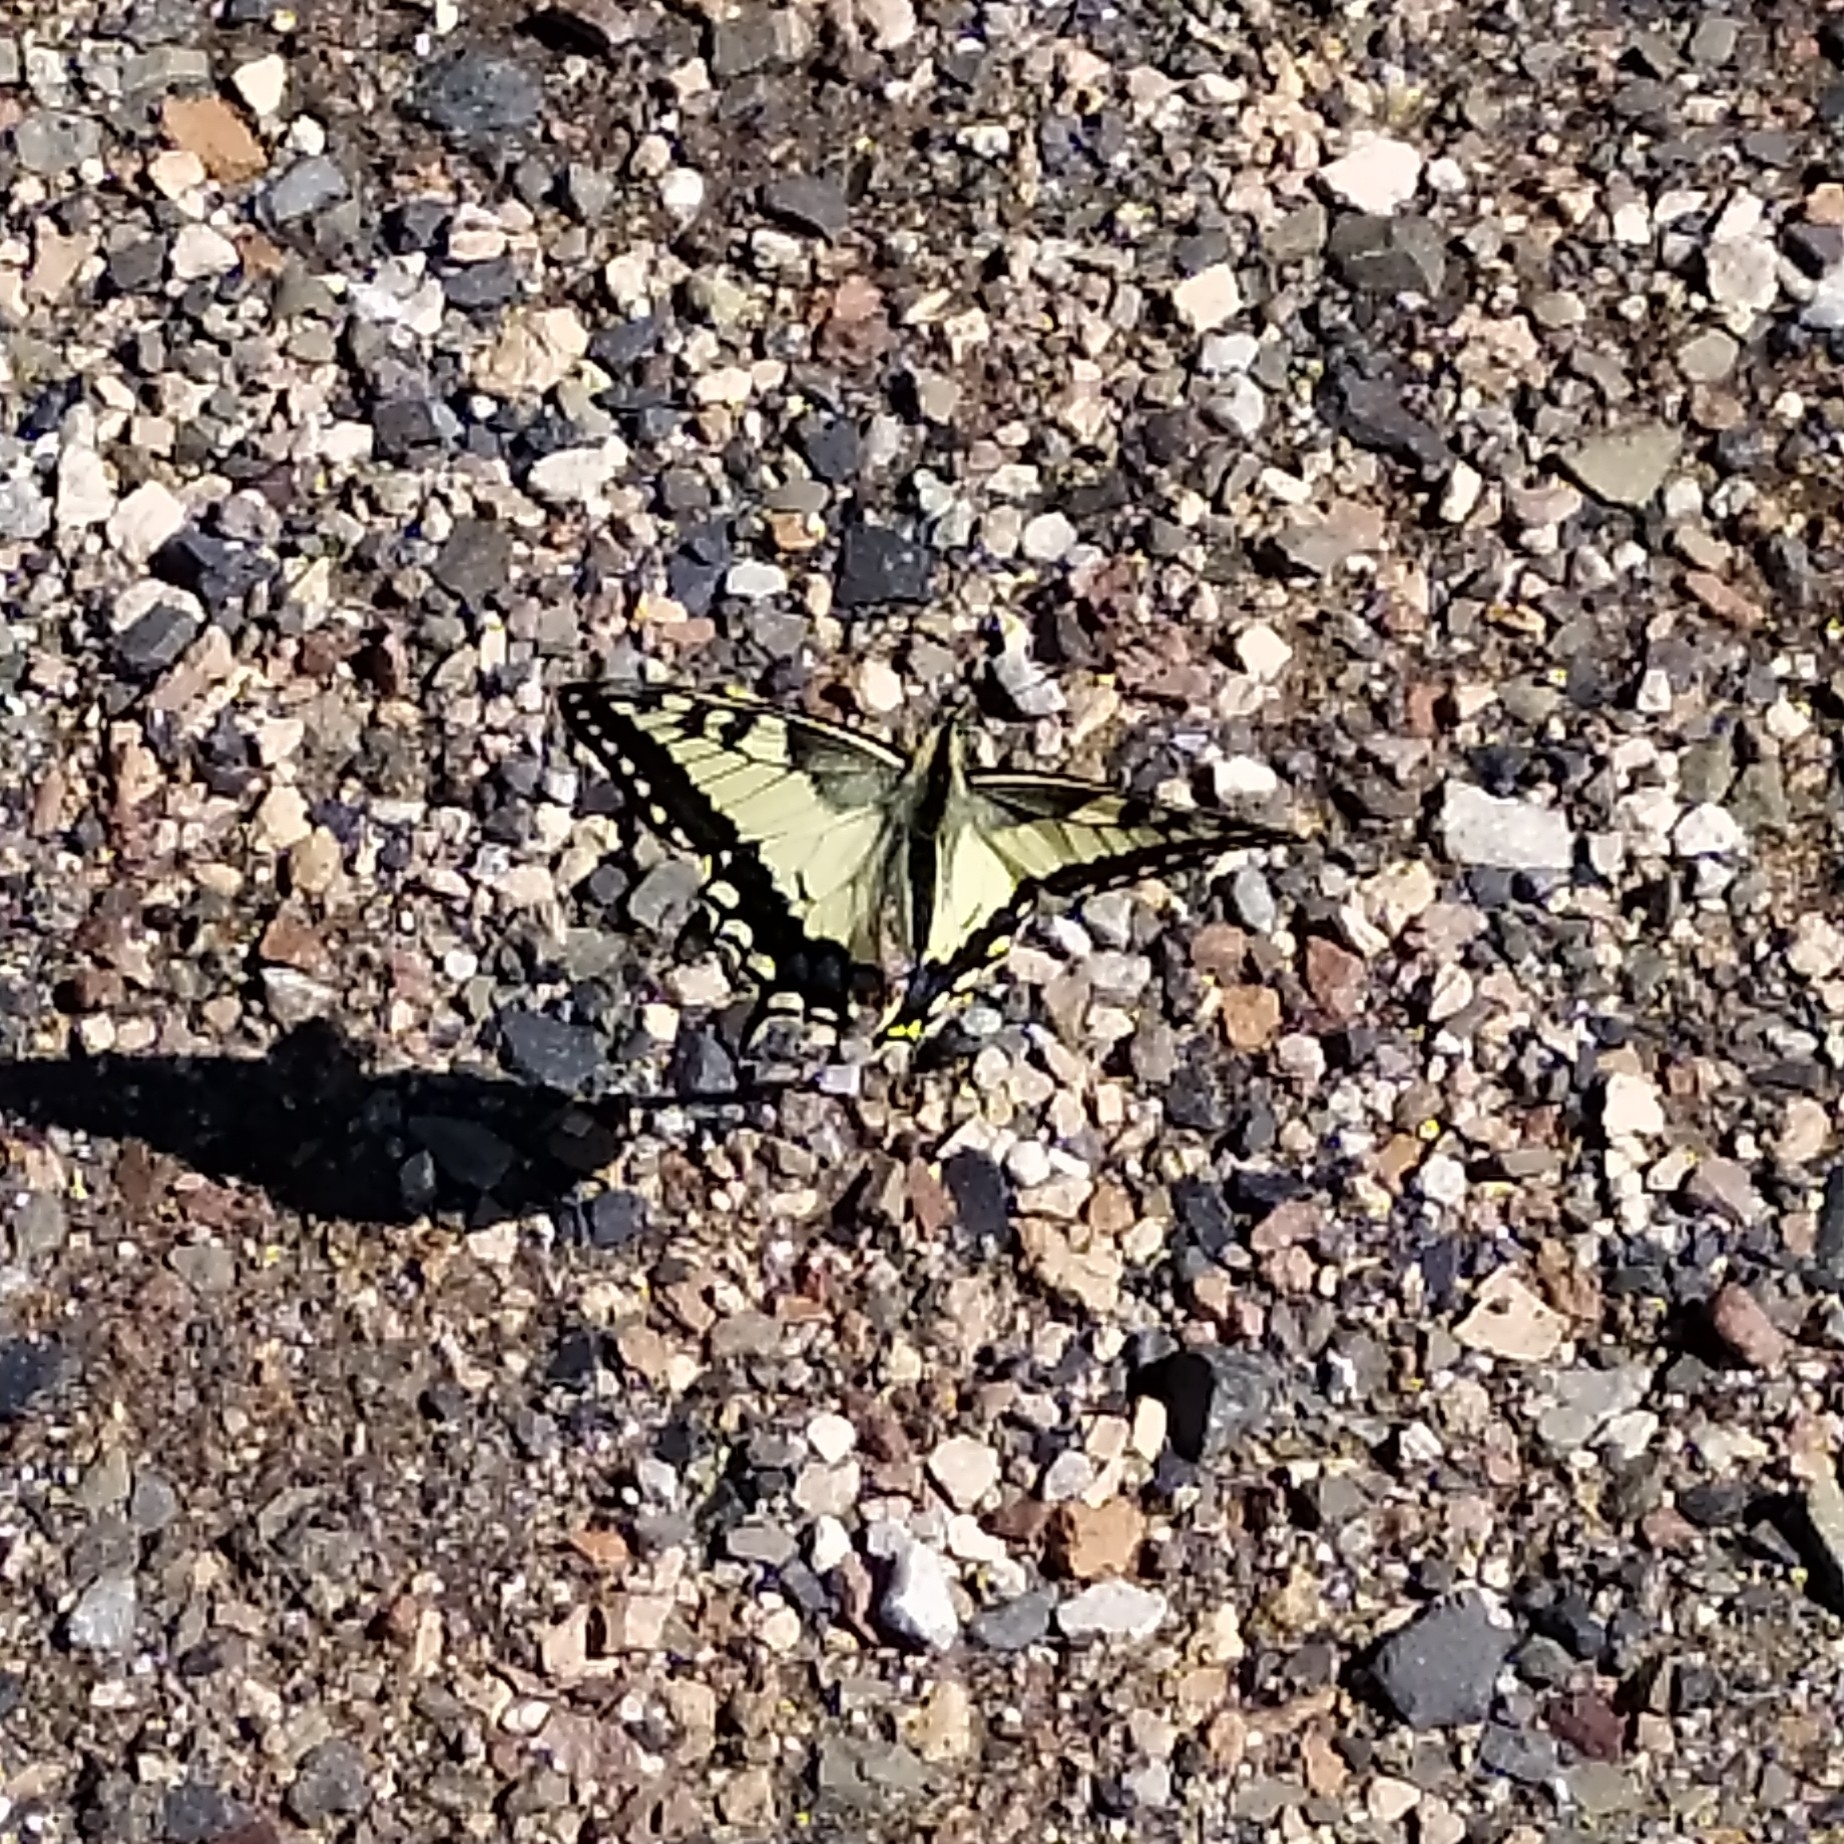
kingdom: Animalia
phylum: Arthropoda
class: Insecta
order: Lepidoptera
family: Papilionidae
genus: Papilio
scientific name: Papilio machaon
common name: Swallowtail
